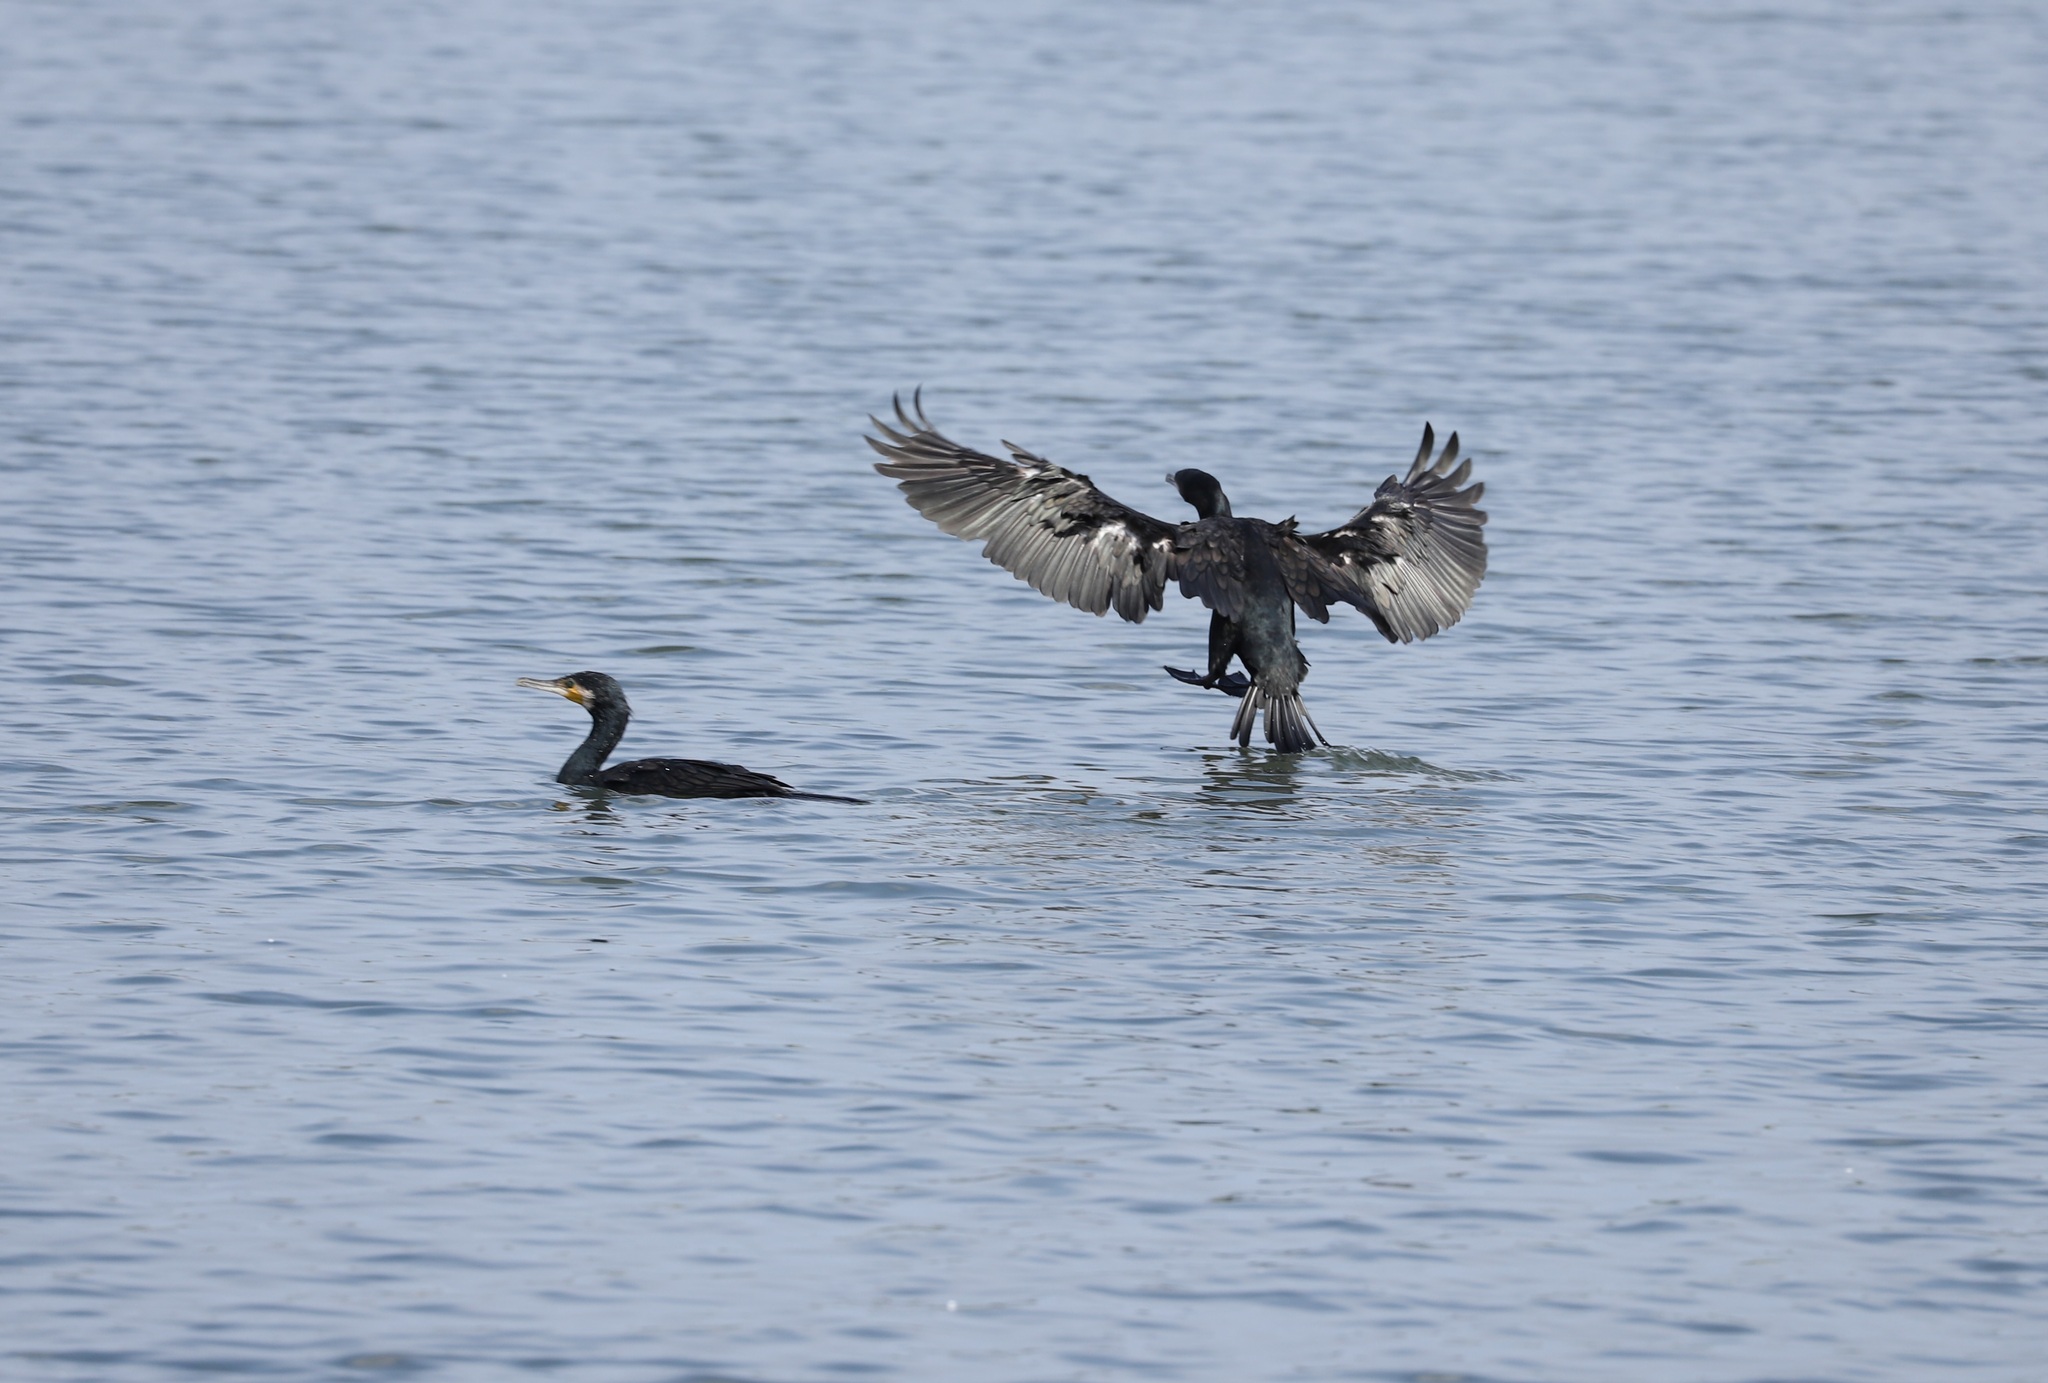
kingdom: Animalia
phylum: Chordata
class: Aves
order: Suliformes
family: Phalacrocoracidae
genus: Phalacrocorax
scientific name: Phalacrocorax carbo
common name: Great cormorant
